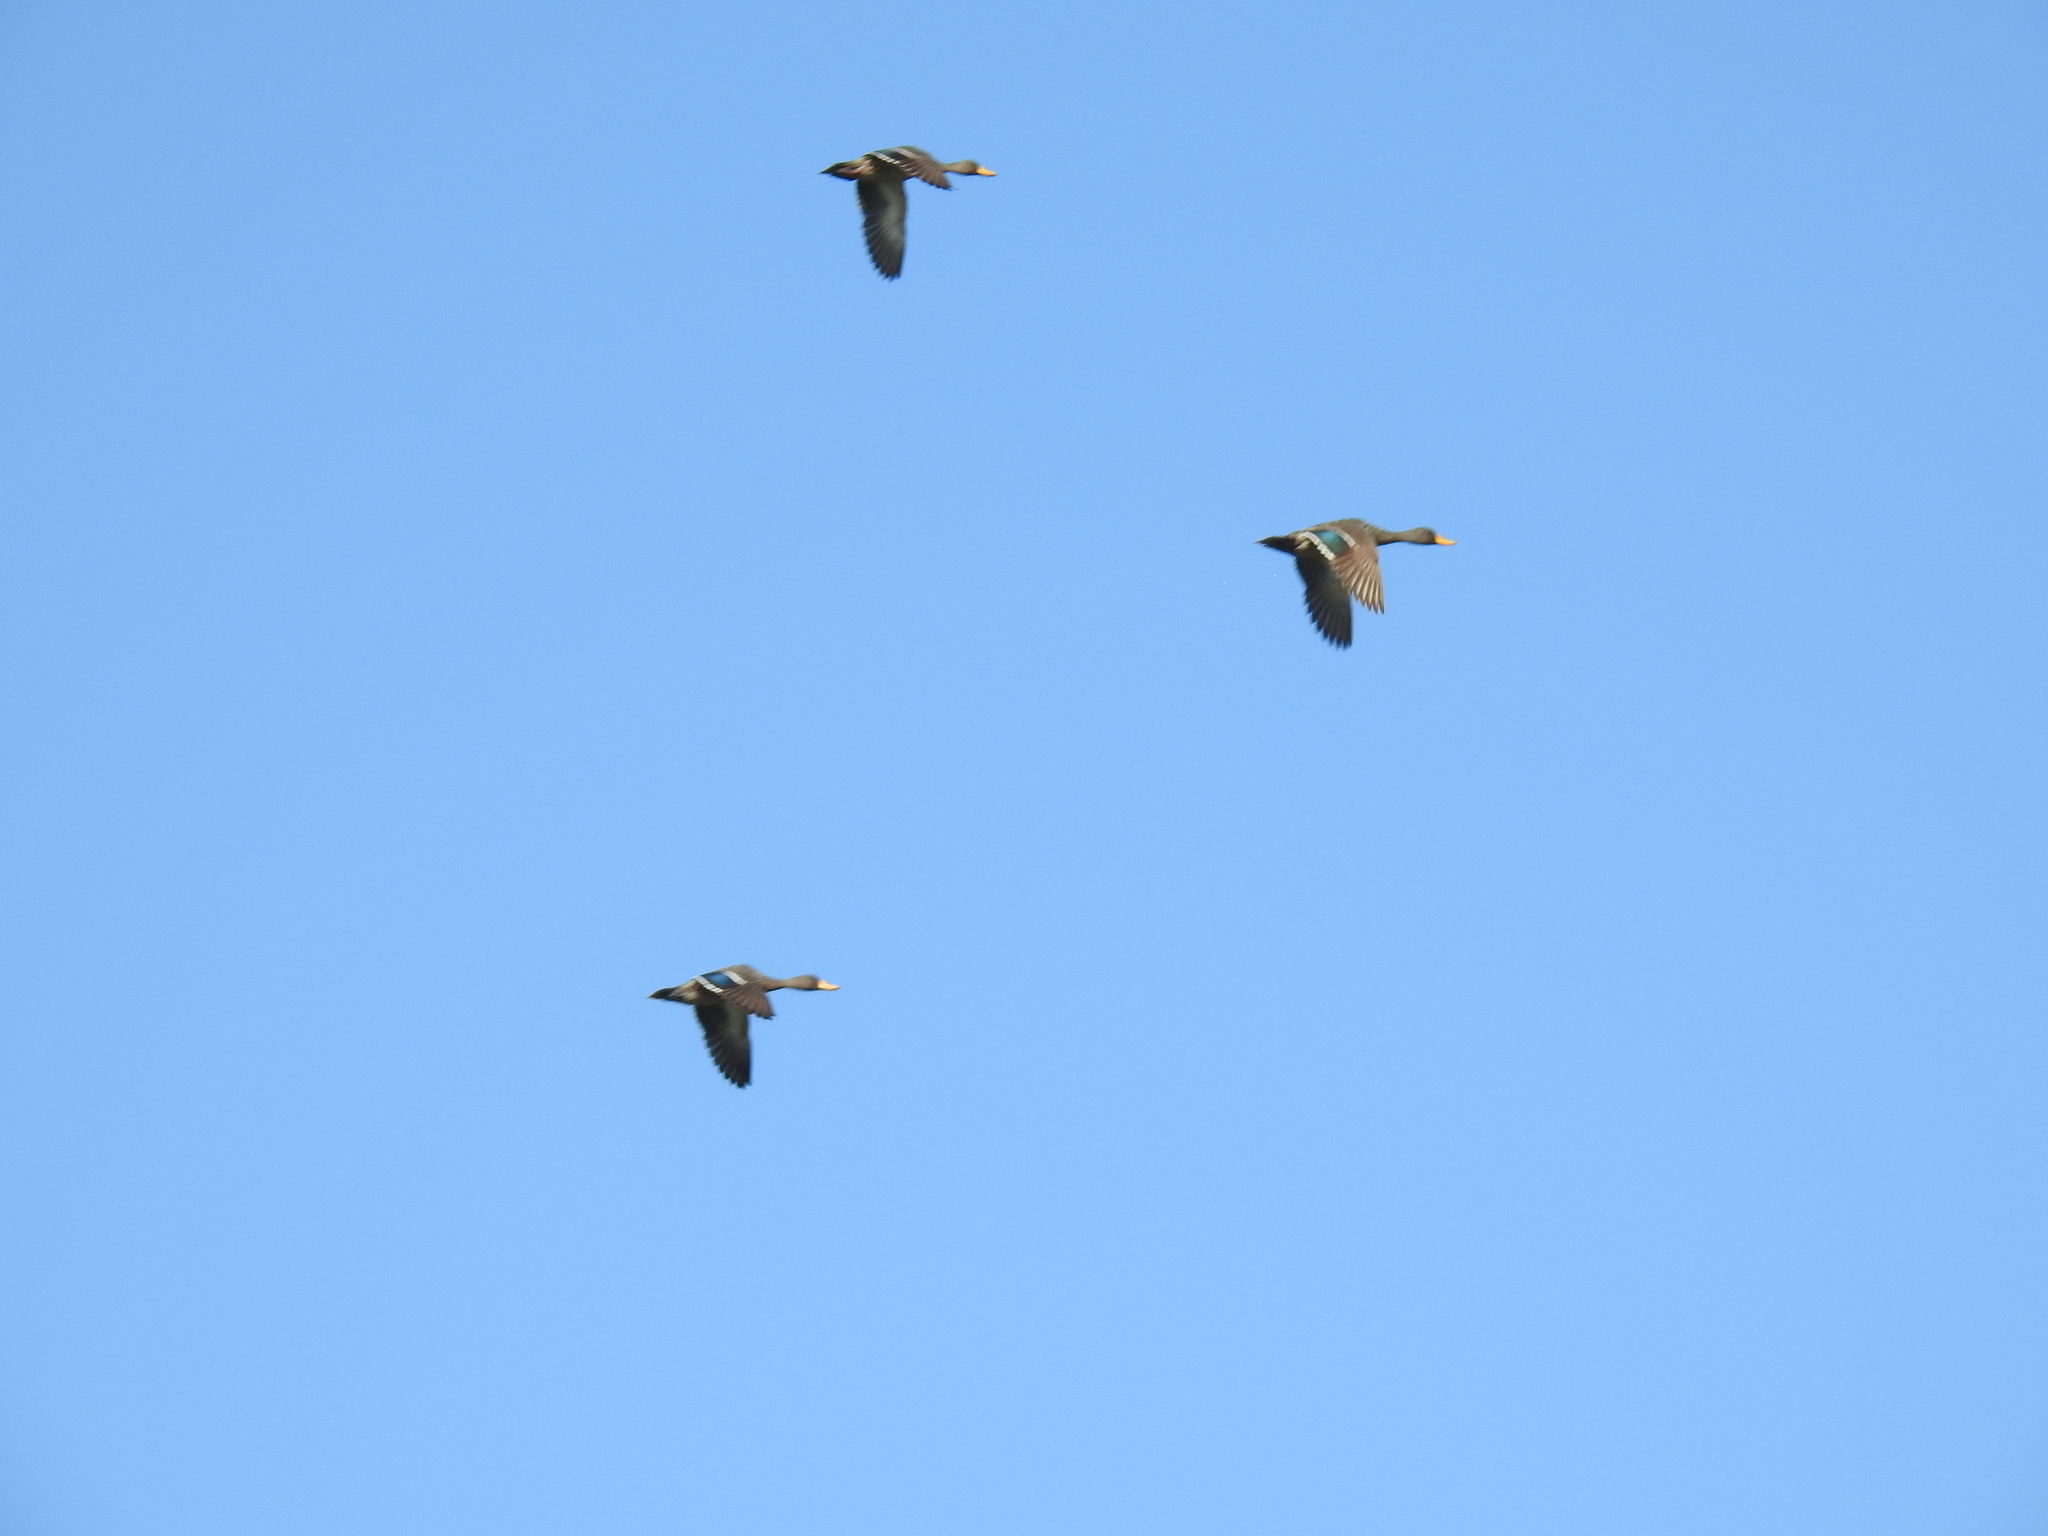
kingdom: Animalia
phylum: Chordata
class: Aves
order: Anseriformes
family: Anatidae
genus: Anas
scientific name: Anas undulata
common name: Yellow-billed duck
